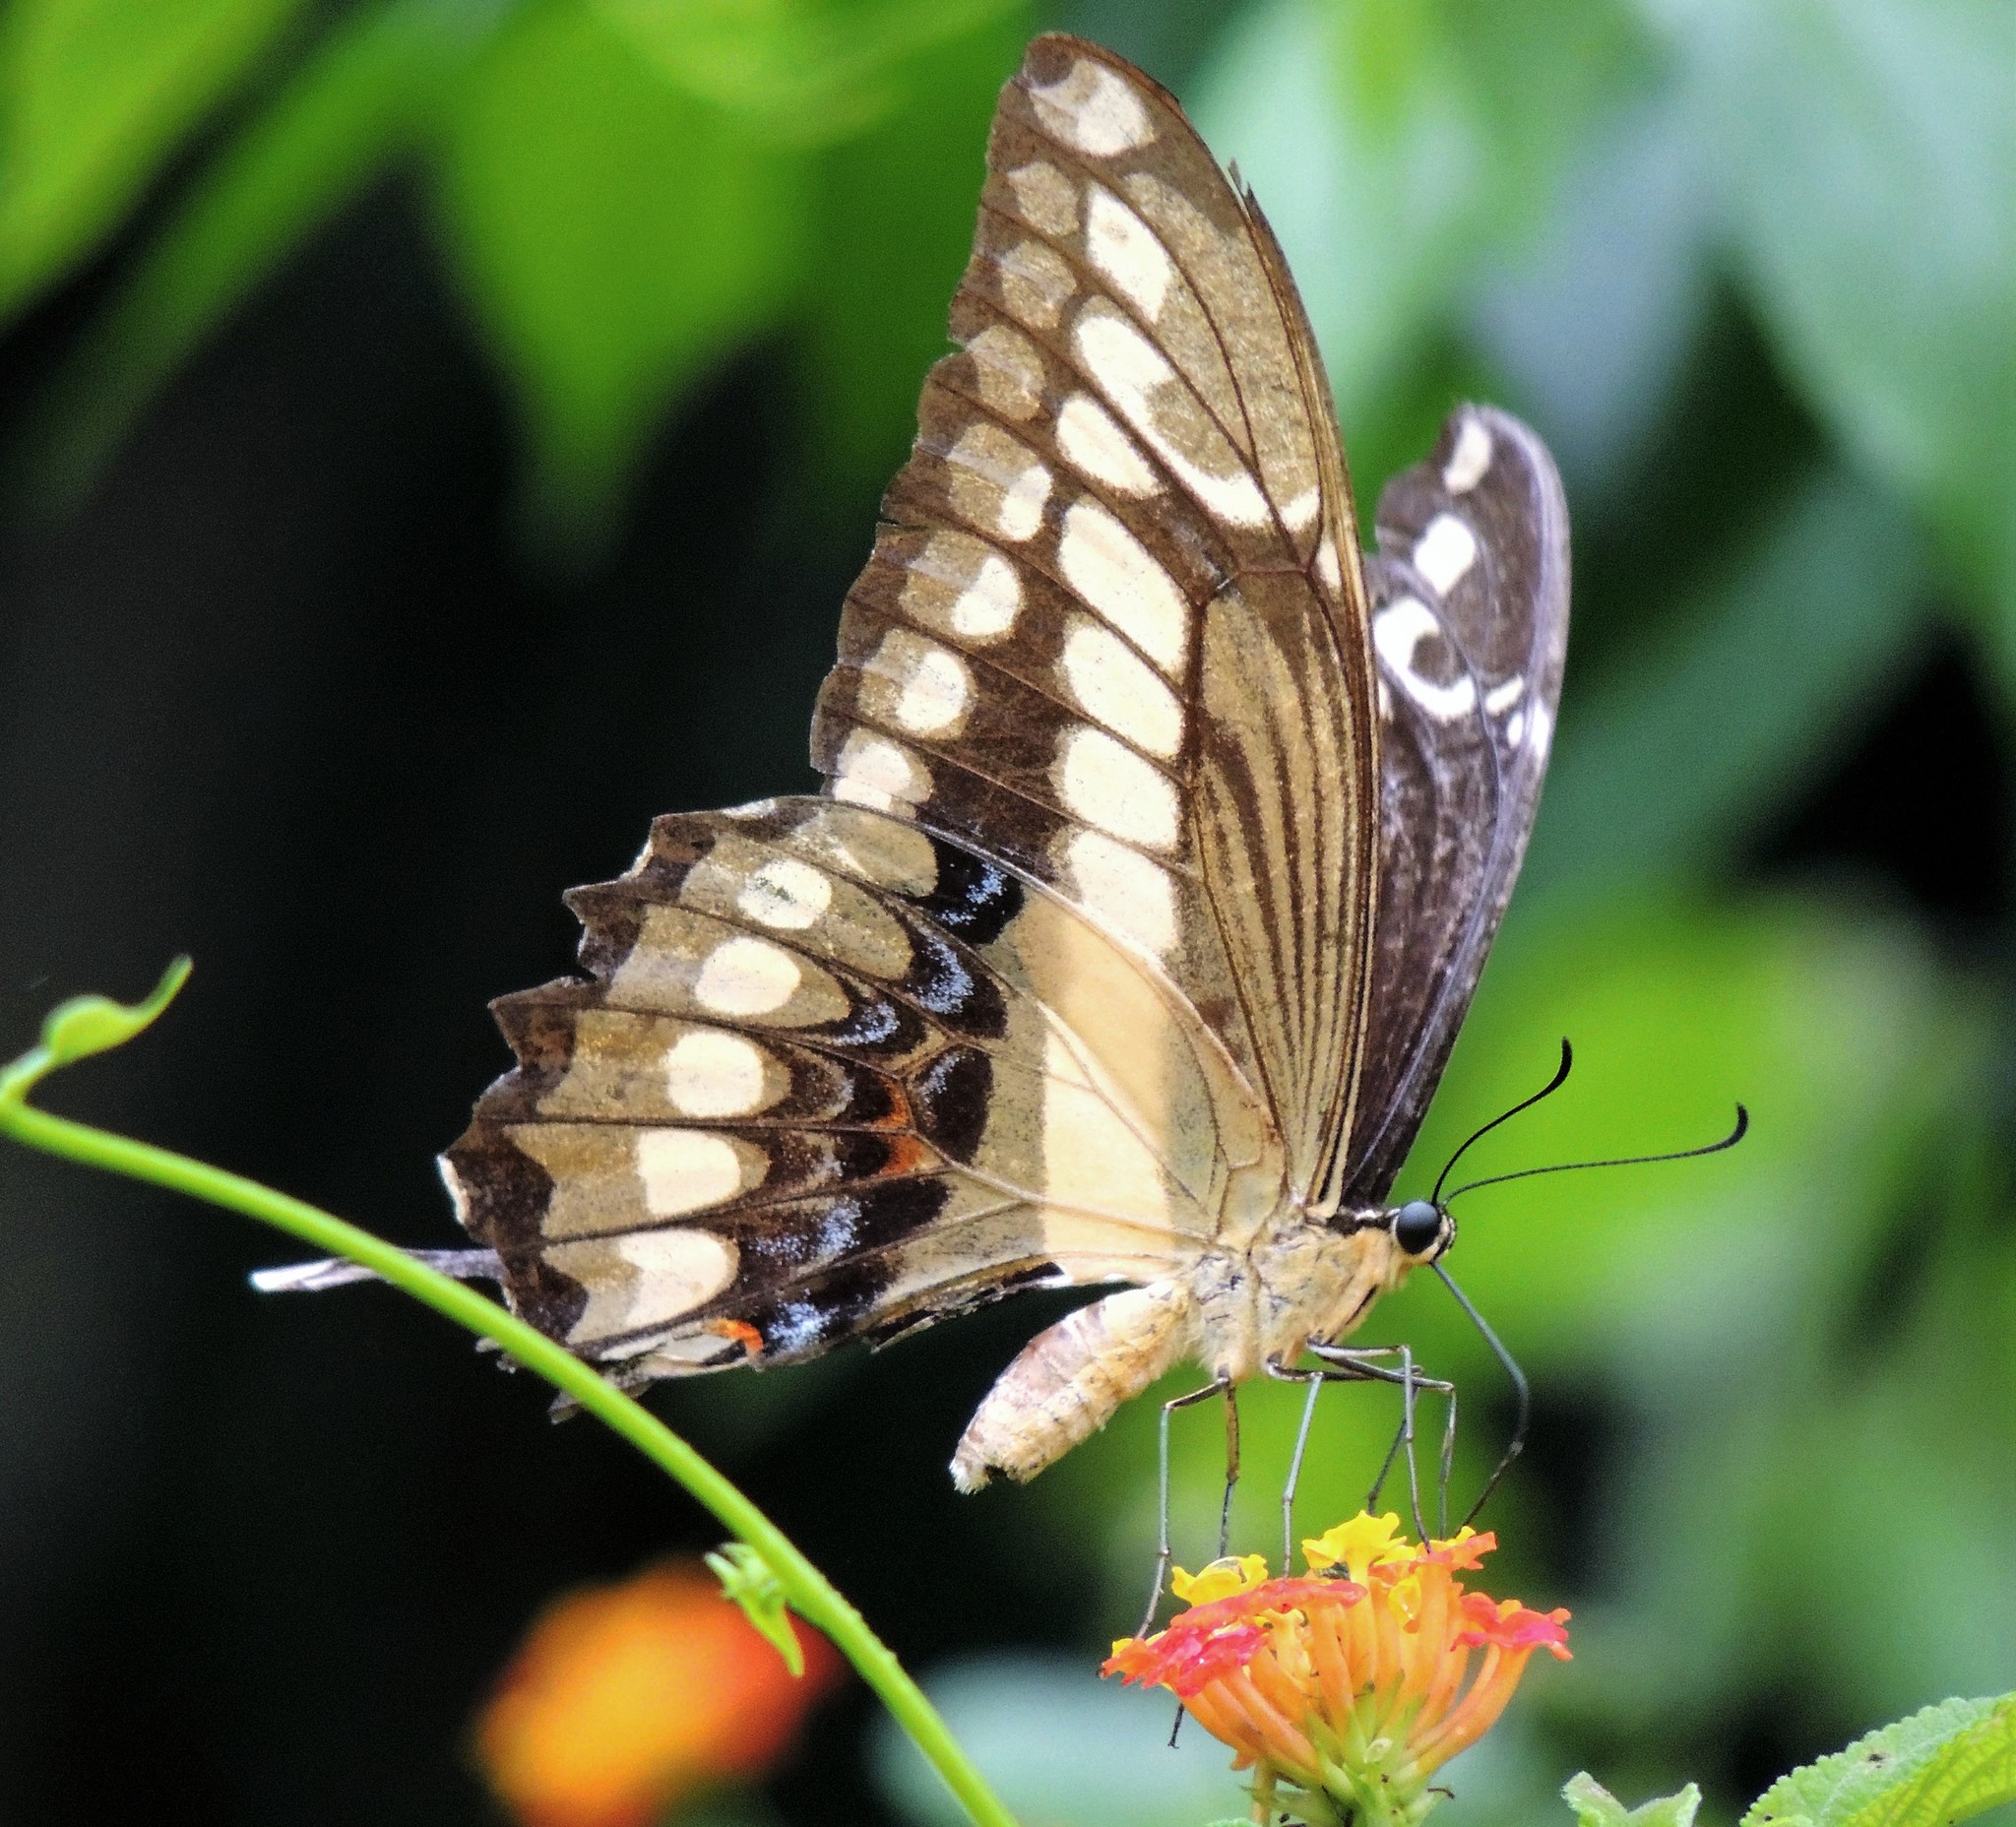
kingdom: Animalia
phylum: Arthropoda
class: Insecta
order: Lepidoptera
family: Papilionidae
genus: Papilio
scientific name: Papilio thoas
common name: King swallowtail
